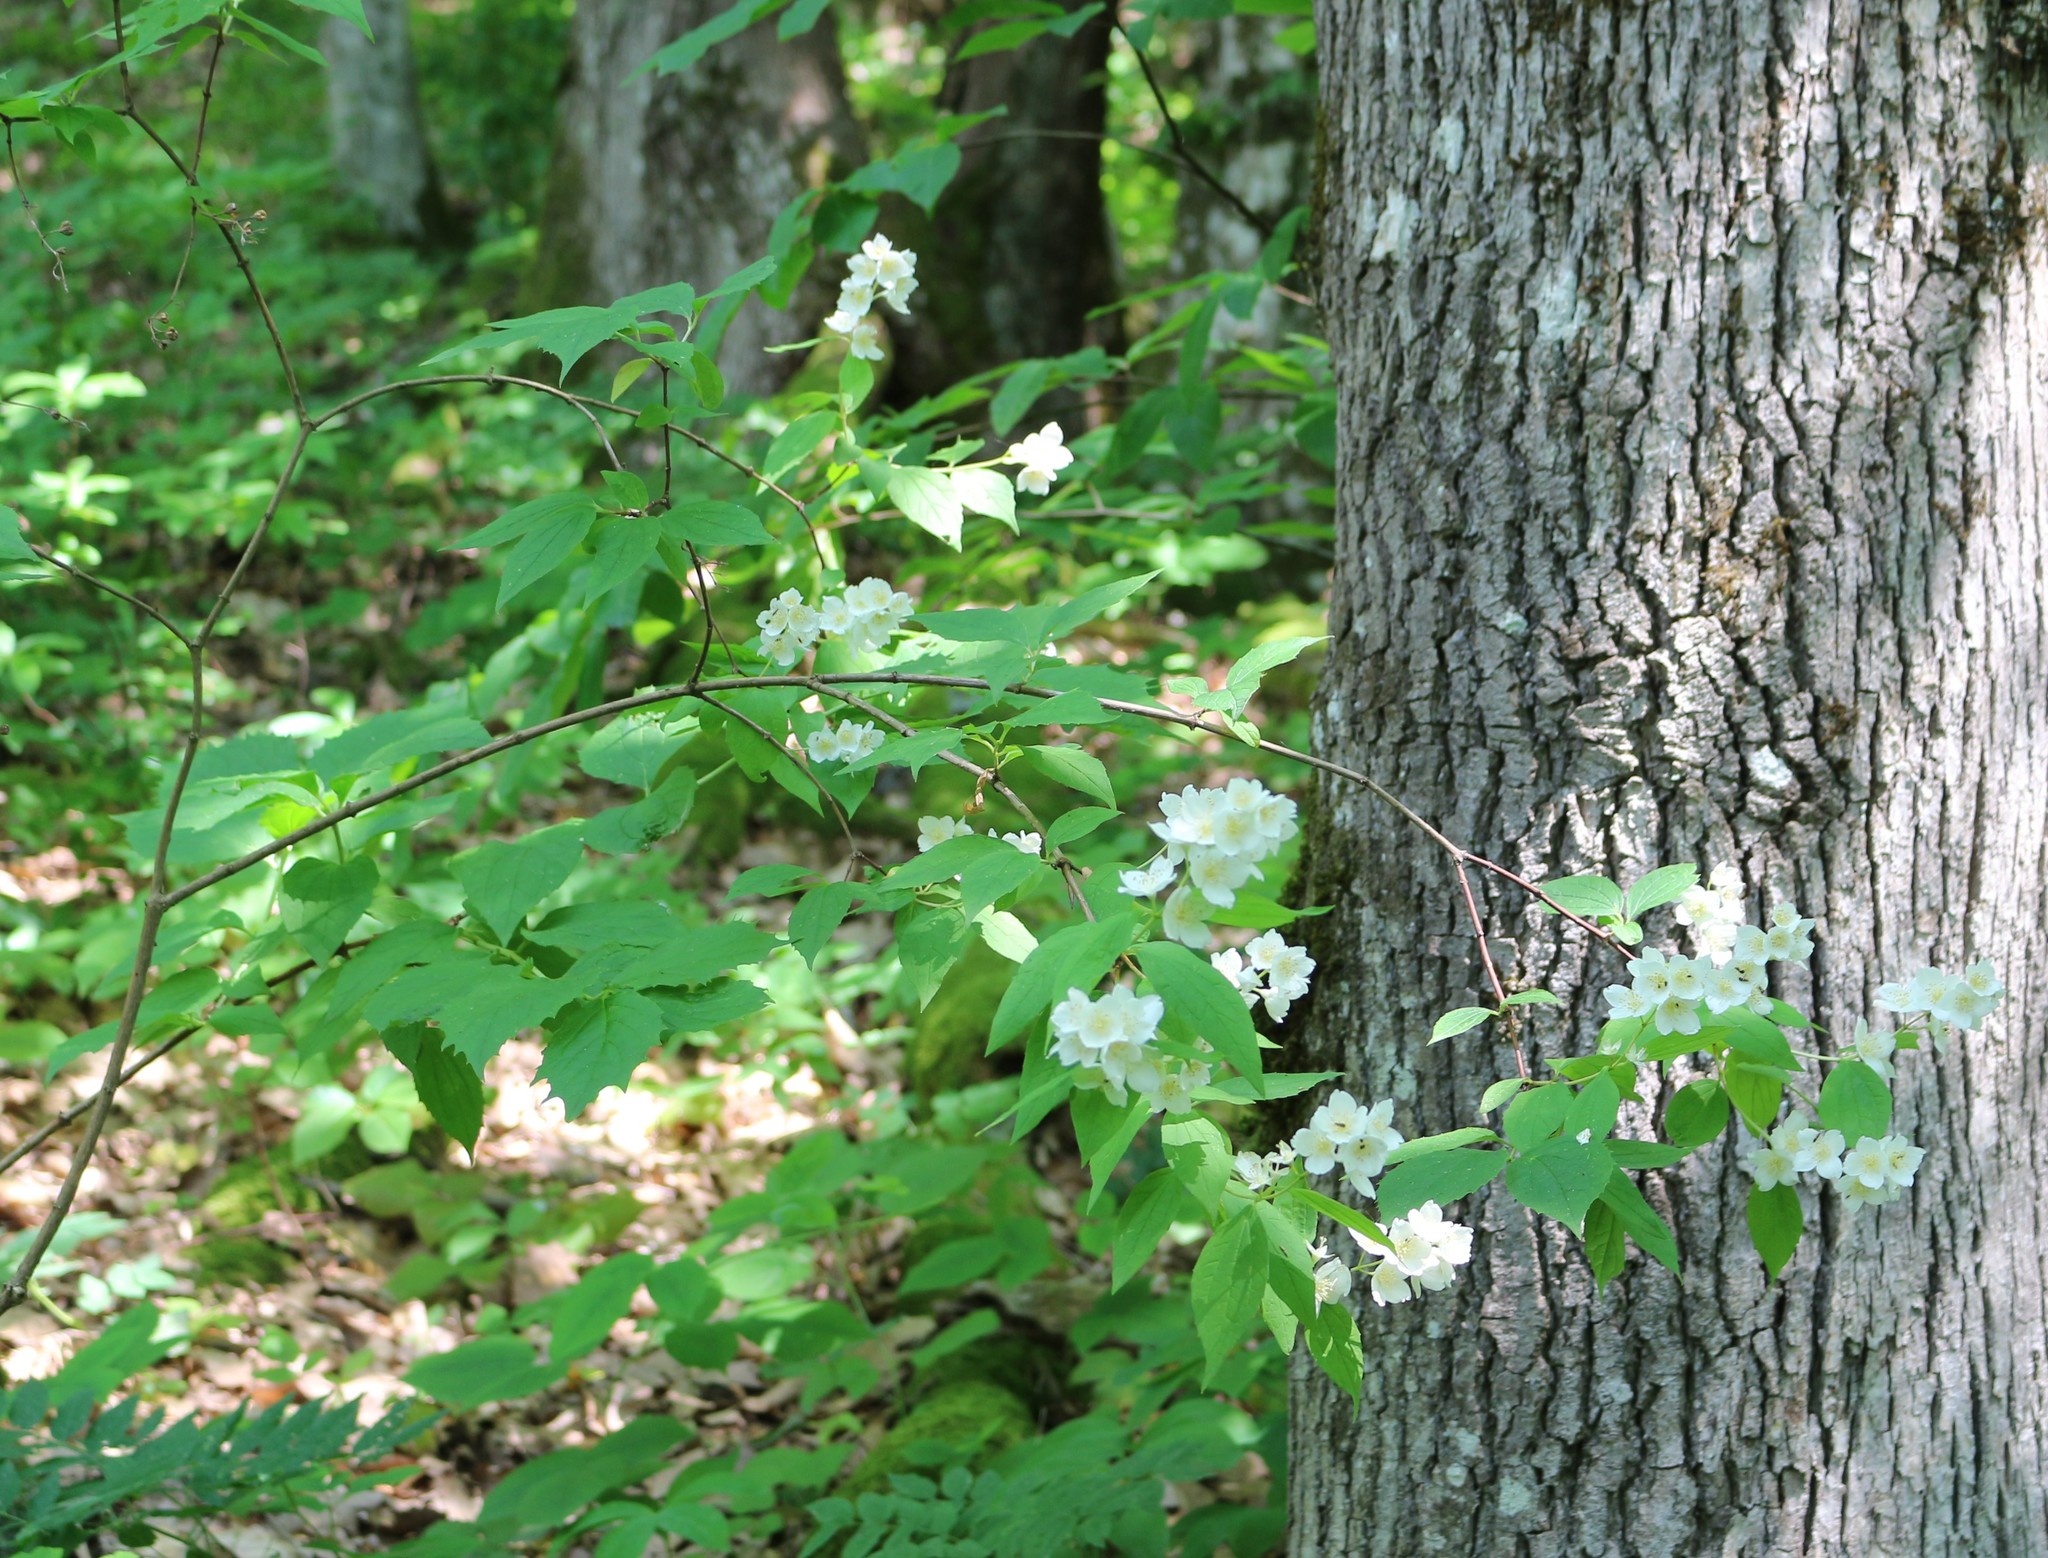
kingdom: Plantae
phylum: Tracheophyta
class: Magnoliopsida
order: Cornales
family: Hydrangeaceae
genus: Philadelphus
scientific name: Philadelphus coronarius
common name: Mock orange
